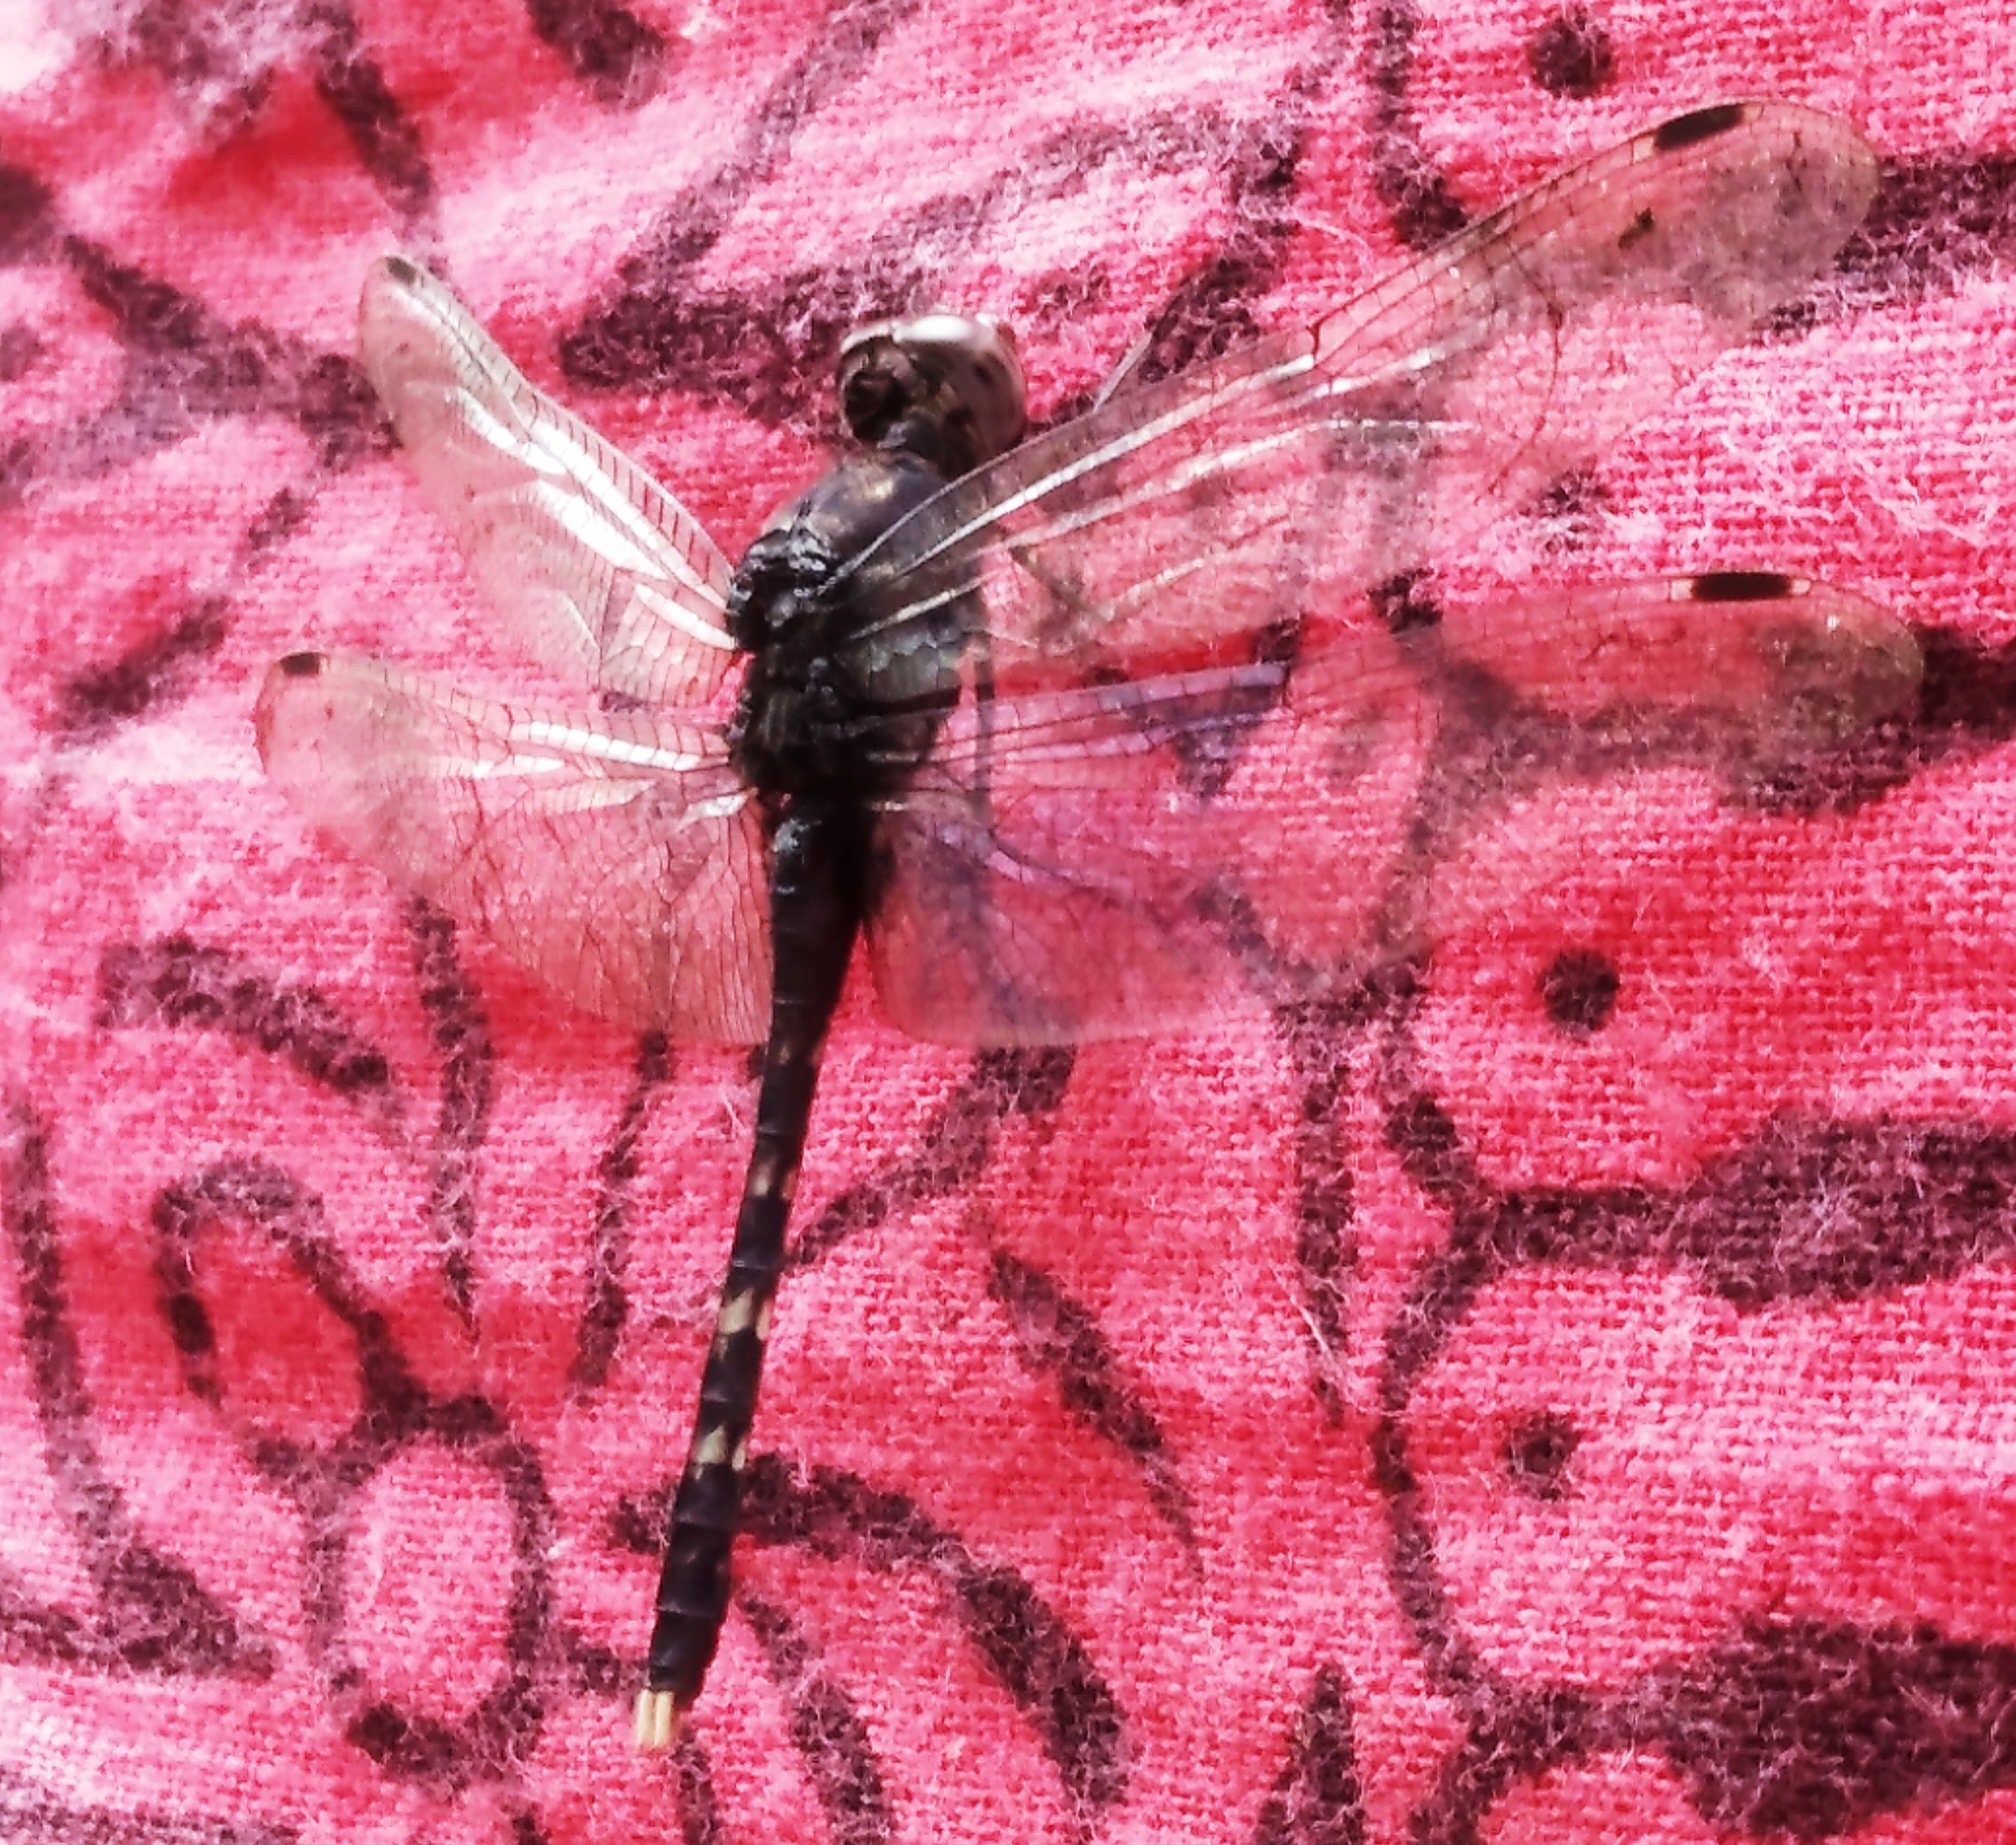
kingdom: Animalia
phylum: Arthropoda
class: Insecta
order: Odonata
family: Libellulidae
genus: Bradinopyga
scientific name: Bradinopyga geminata
